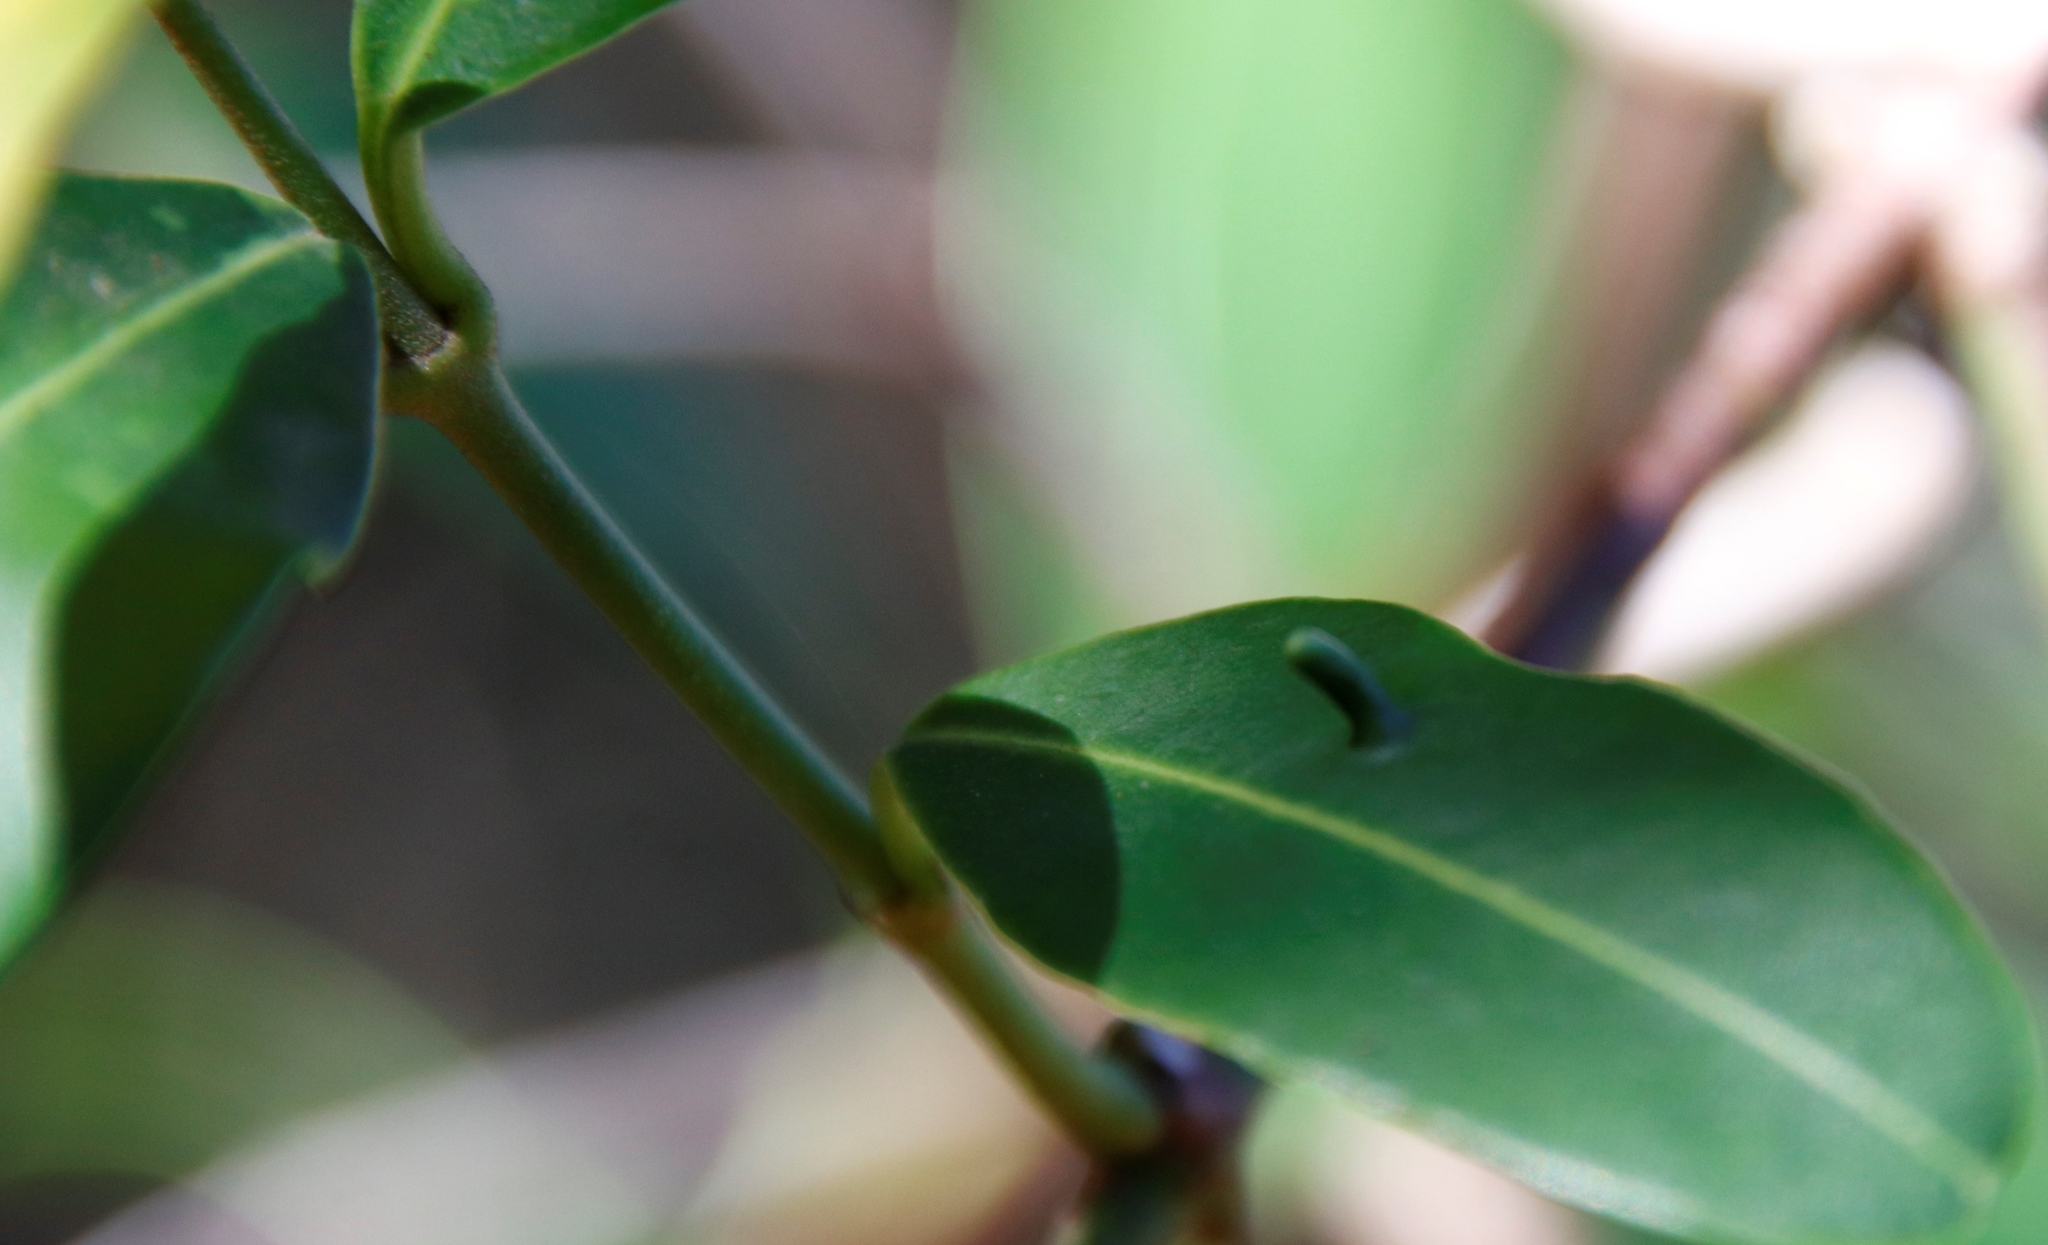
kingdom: Plantae
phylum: Tracheophyta
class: Magnoliopsida
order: Gentianales
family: Apocynaceae
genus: Secamone
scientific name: Secamone alpini
